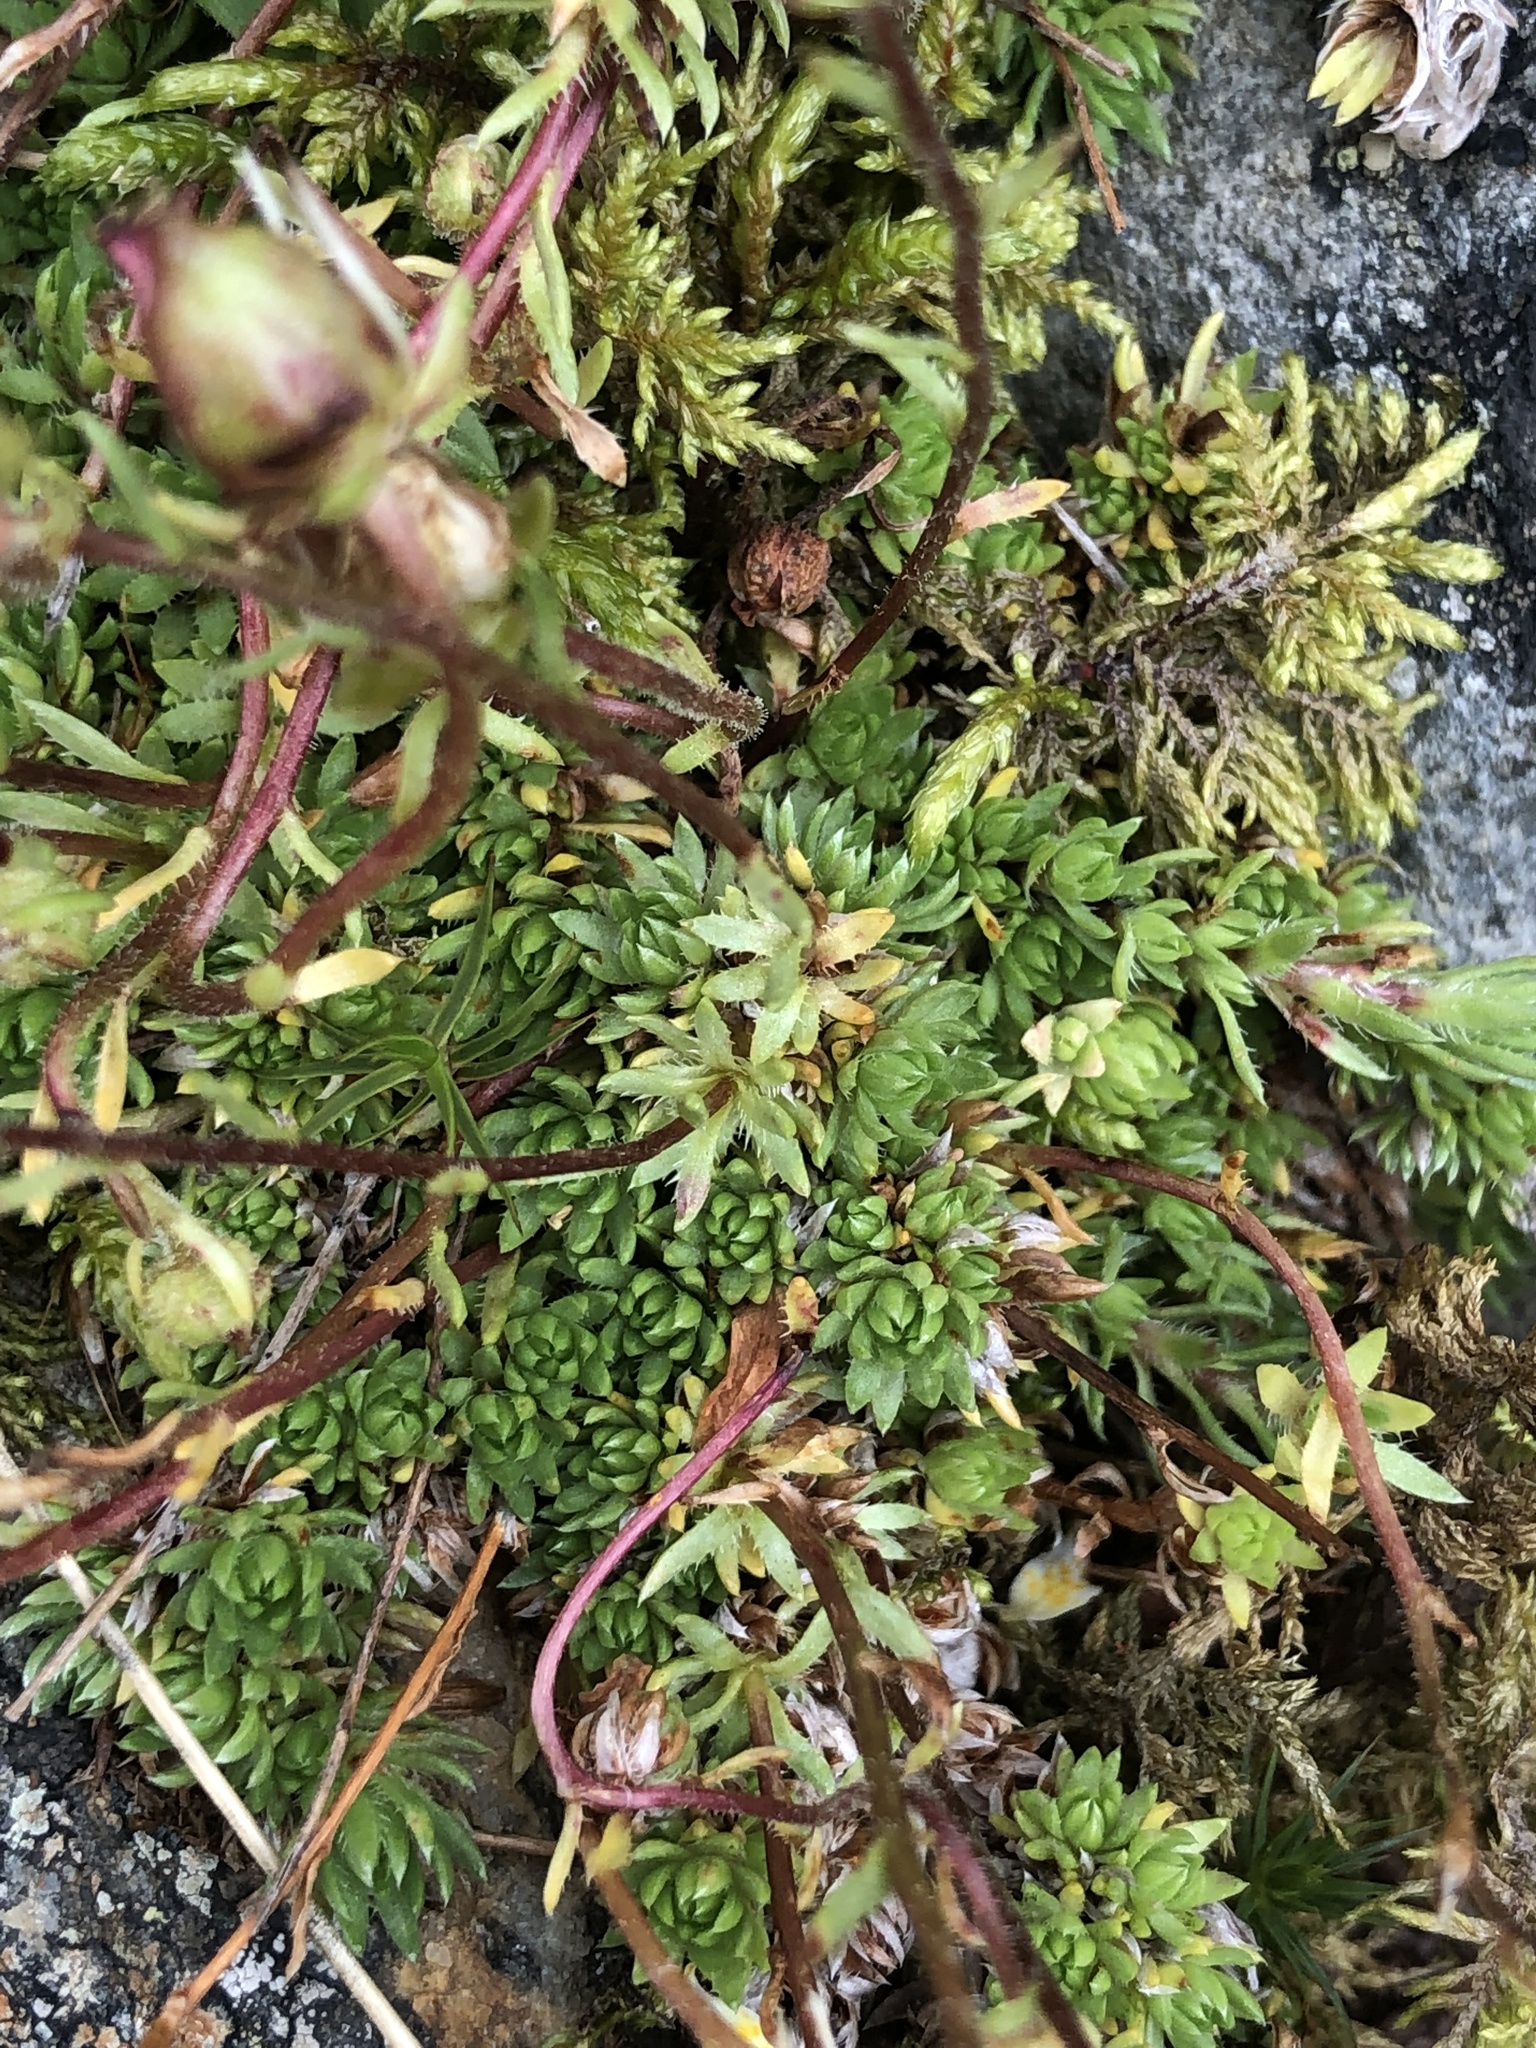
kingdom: Plantae
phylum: Tracheophyta
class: Magnoliopsida
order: Saxifragales
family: Saxifragaceae
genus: Saxifraga
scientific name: Saxifraga bryoides
